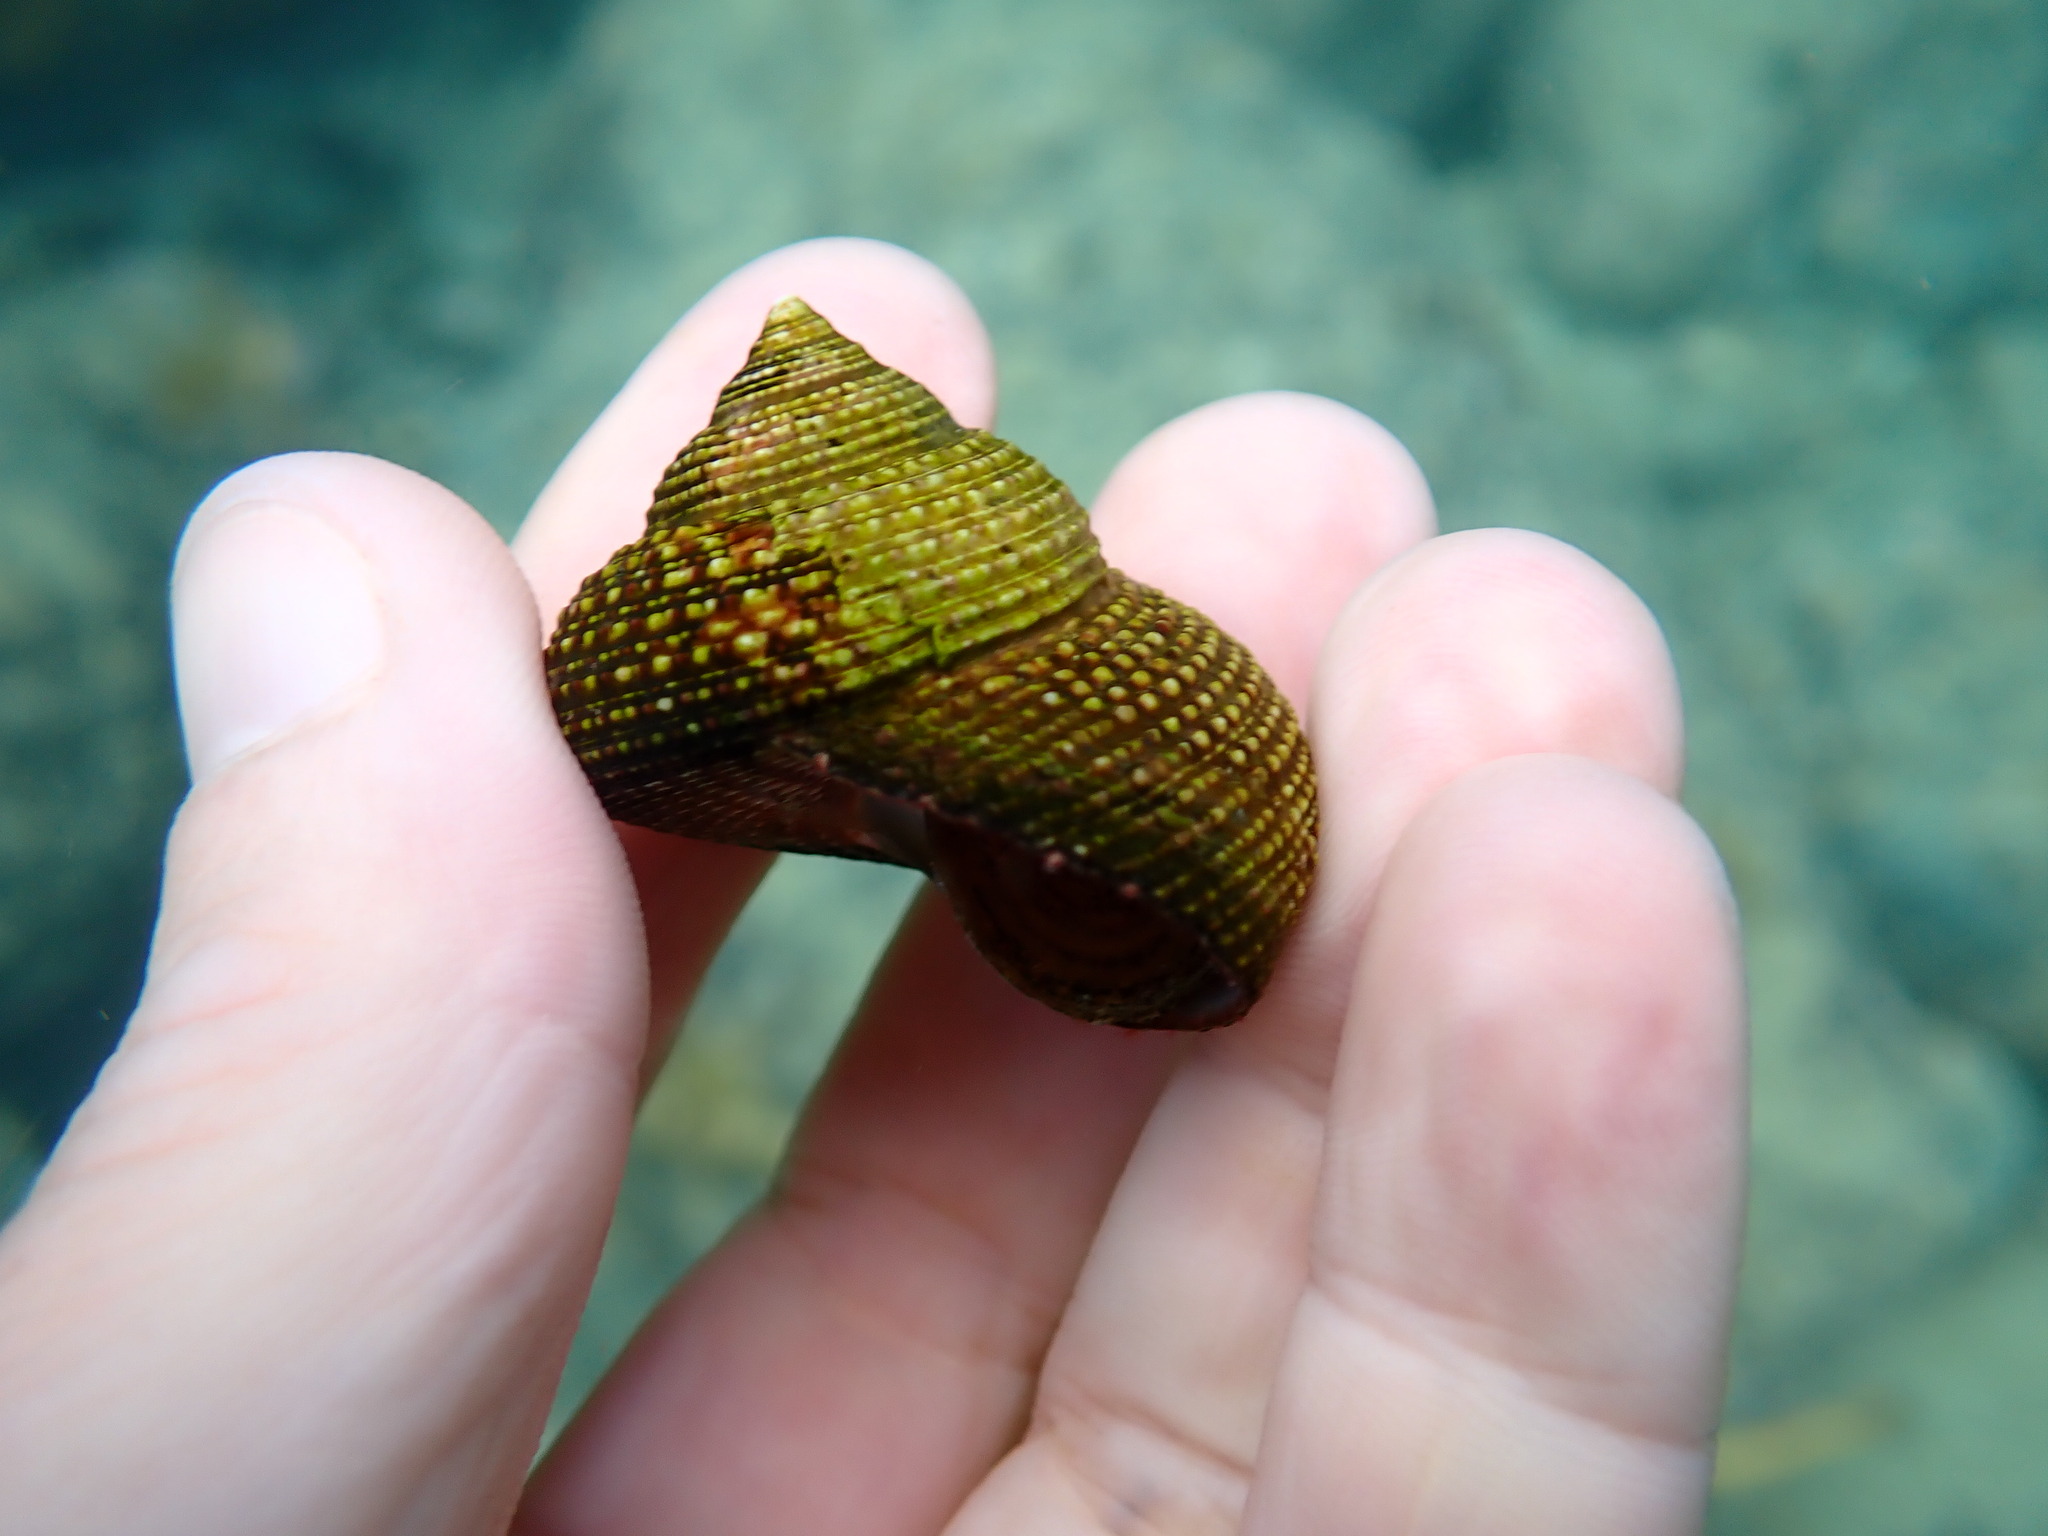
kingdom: Animalia
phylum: Mollusca
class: Gastropoda
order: Trochida
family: Calliostomatidae
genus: Maurea
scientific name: Maurea punctulata
